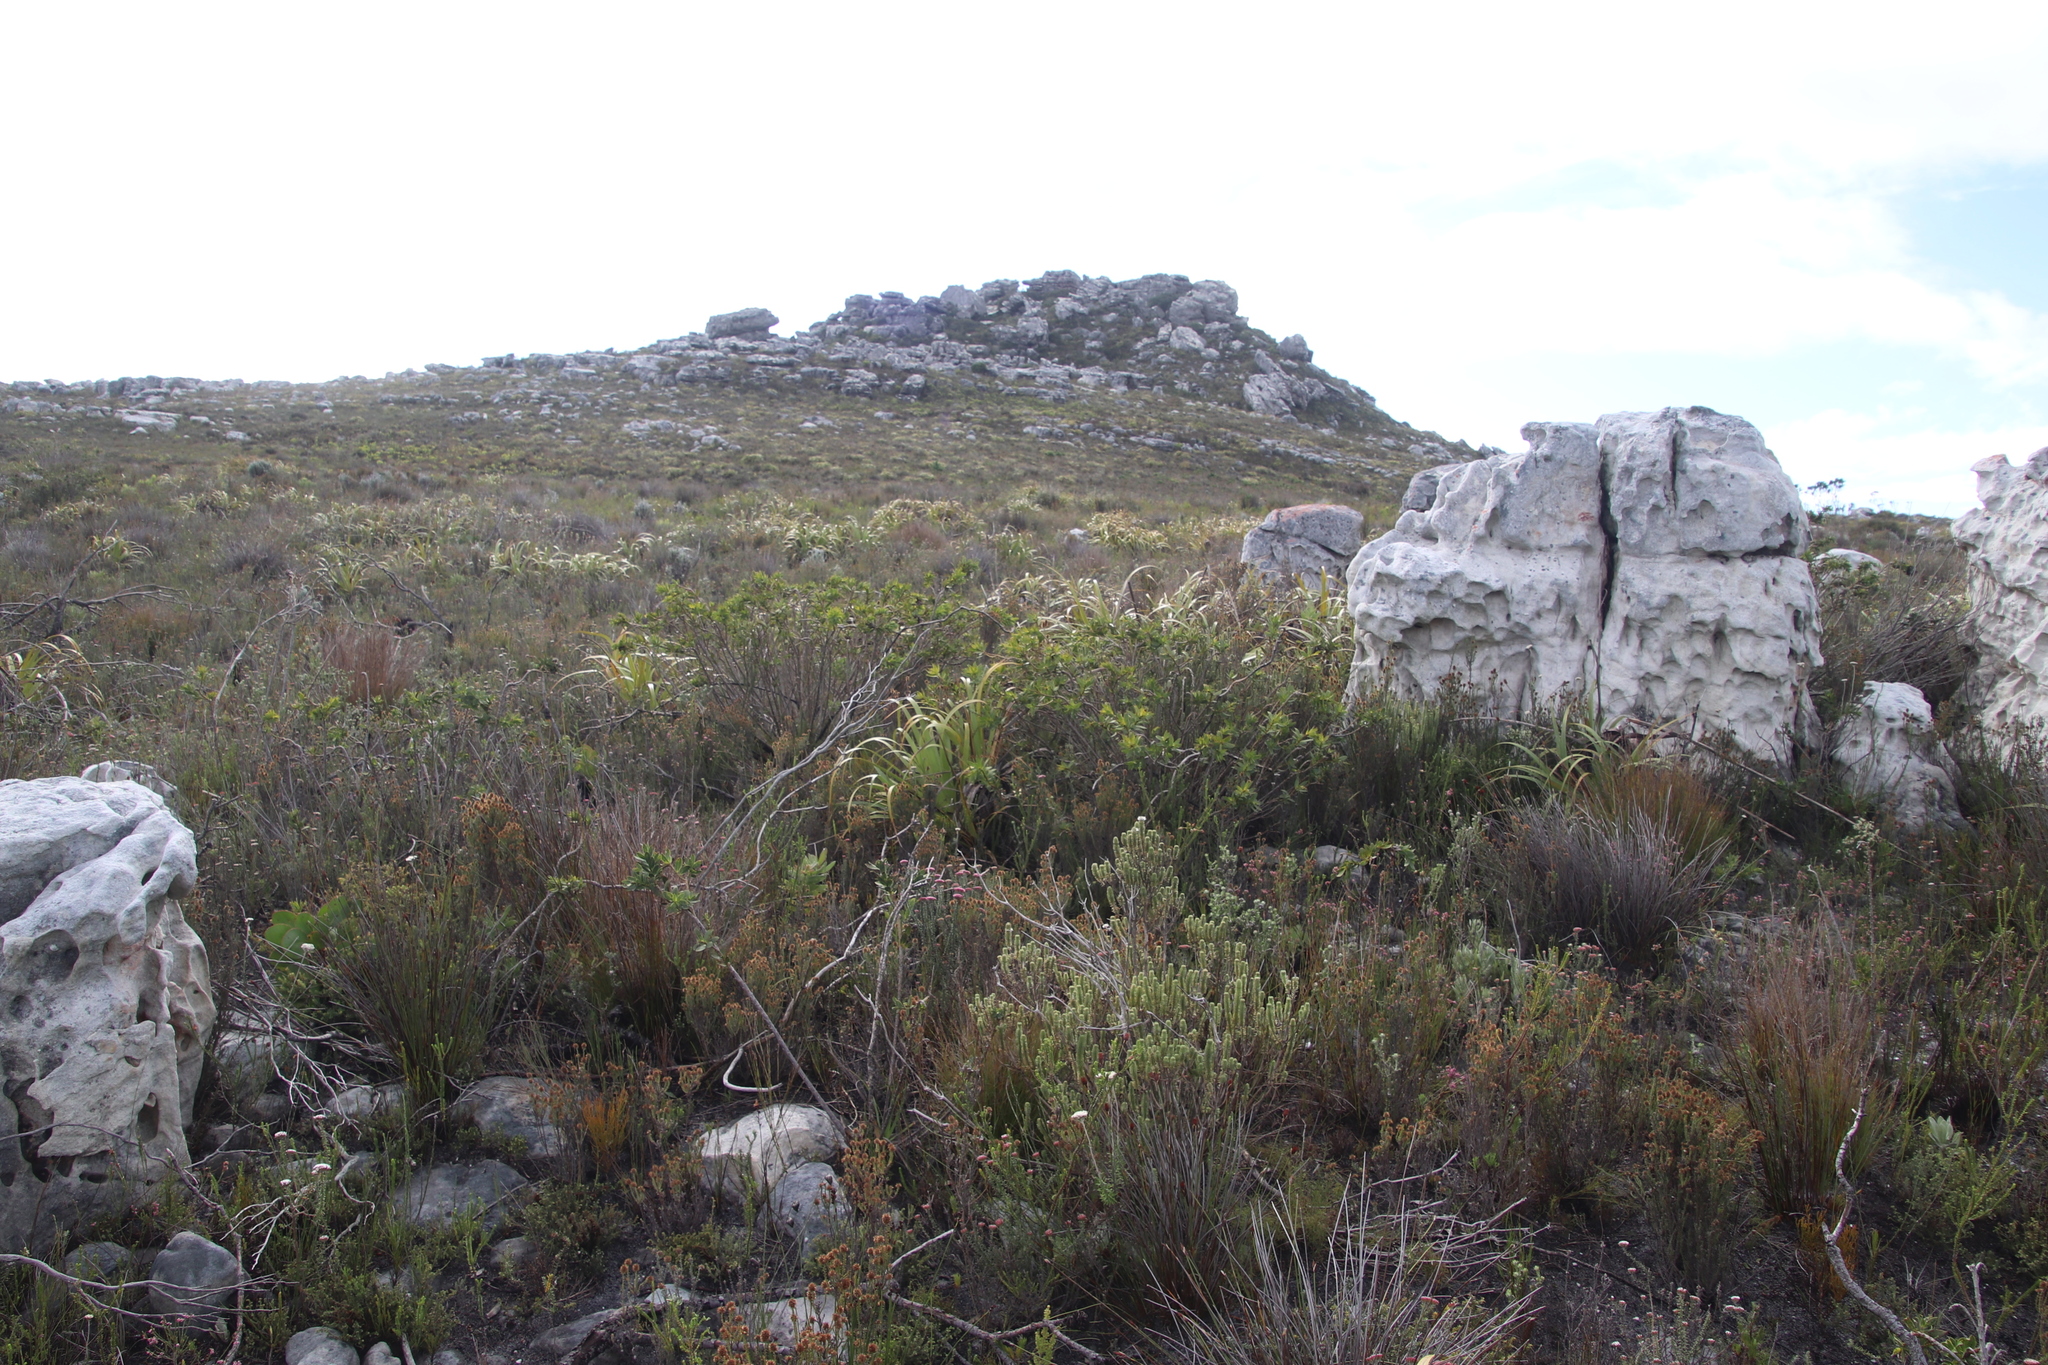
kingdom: Plantae
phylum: Tracheophyta
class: Liliopsida
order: Poales
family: Cyperaceae
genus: Tetraria
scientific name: Tetraria thermalis
